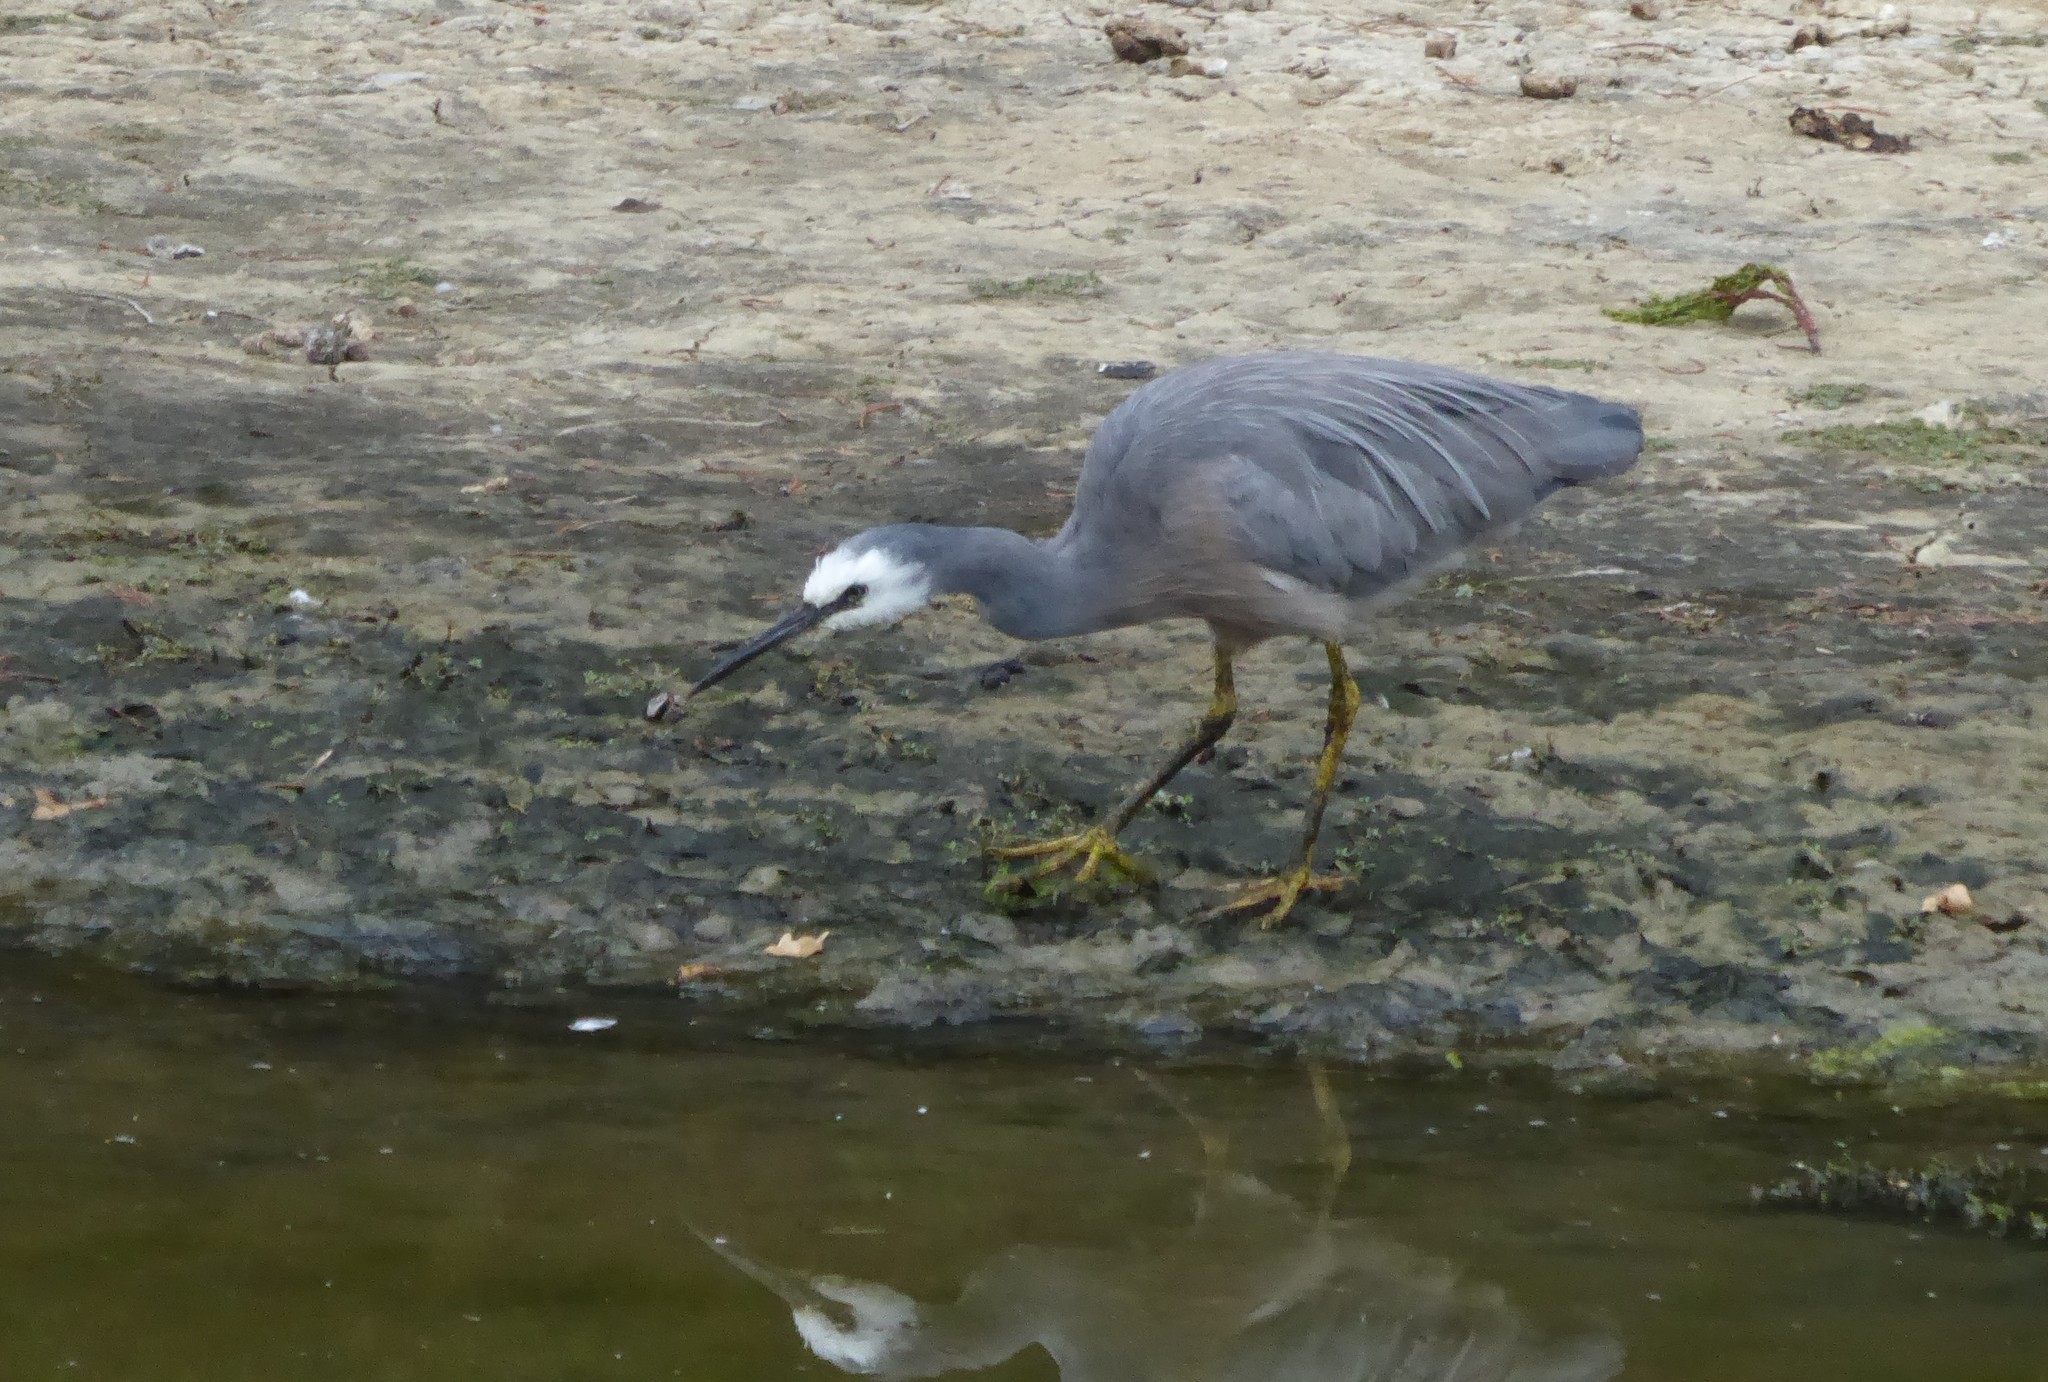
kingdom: Animalia
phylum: Chordata
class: Aves
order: Pelecaniformes
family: Ardeidae
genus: Egretta
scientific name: Egretta novaehollandiae
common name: White-faced heron
